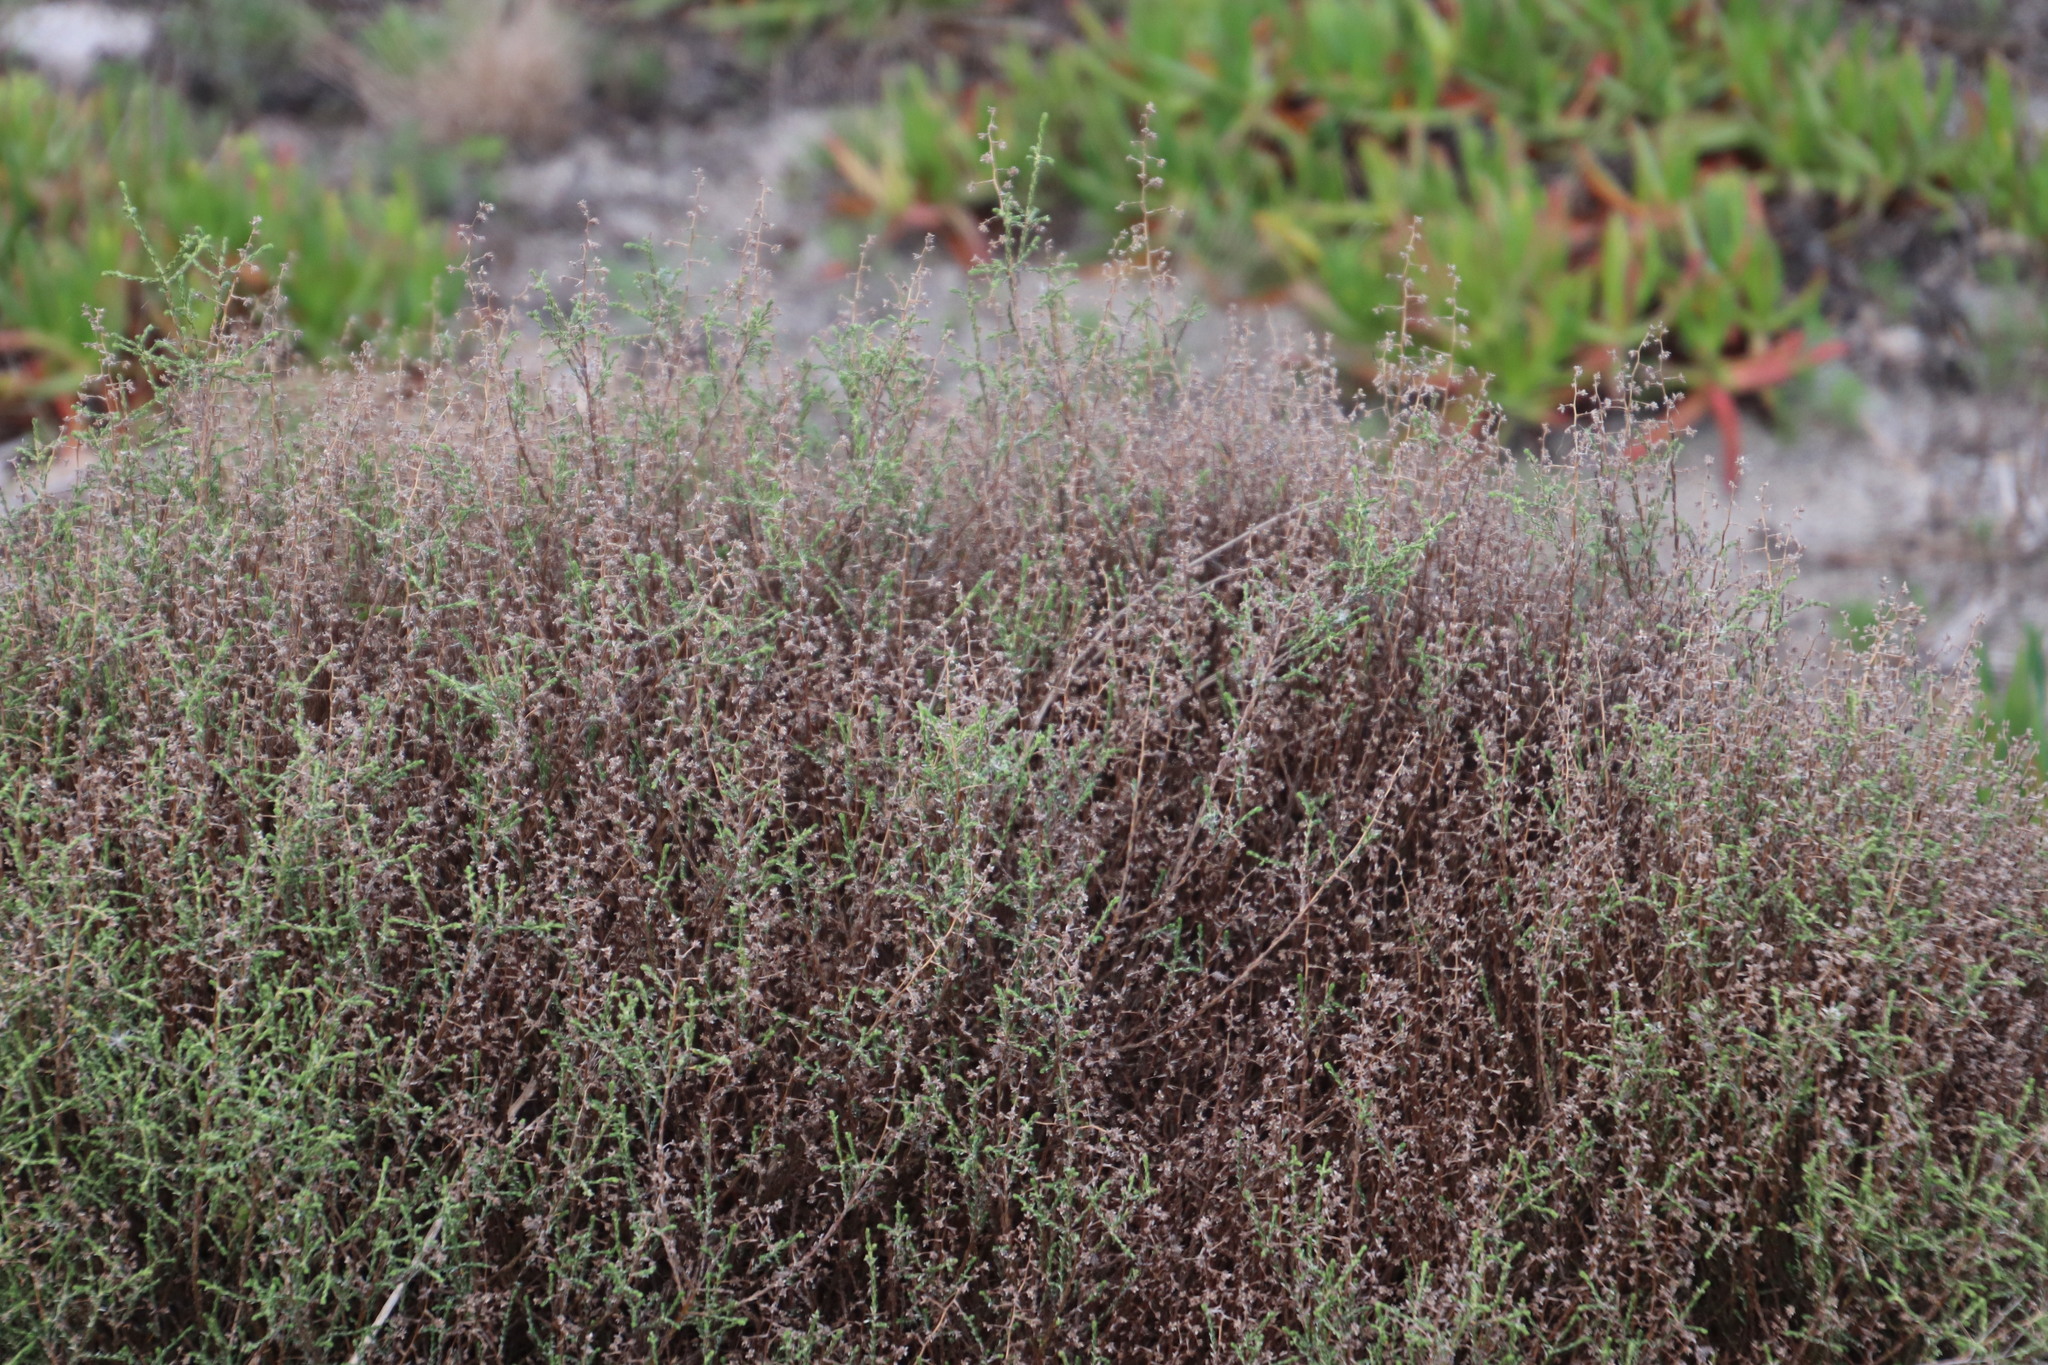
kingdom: Plantae
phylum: Tracheophyta
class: Magnoliopsida
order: Asterales
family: Asteraceae
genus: Myrovernix
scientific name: Myrovernix scaber
